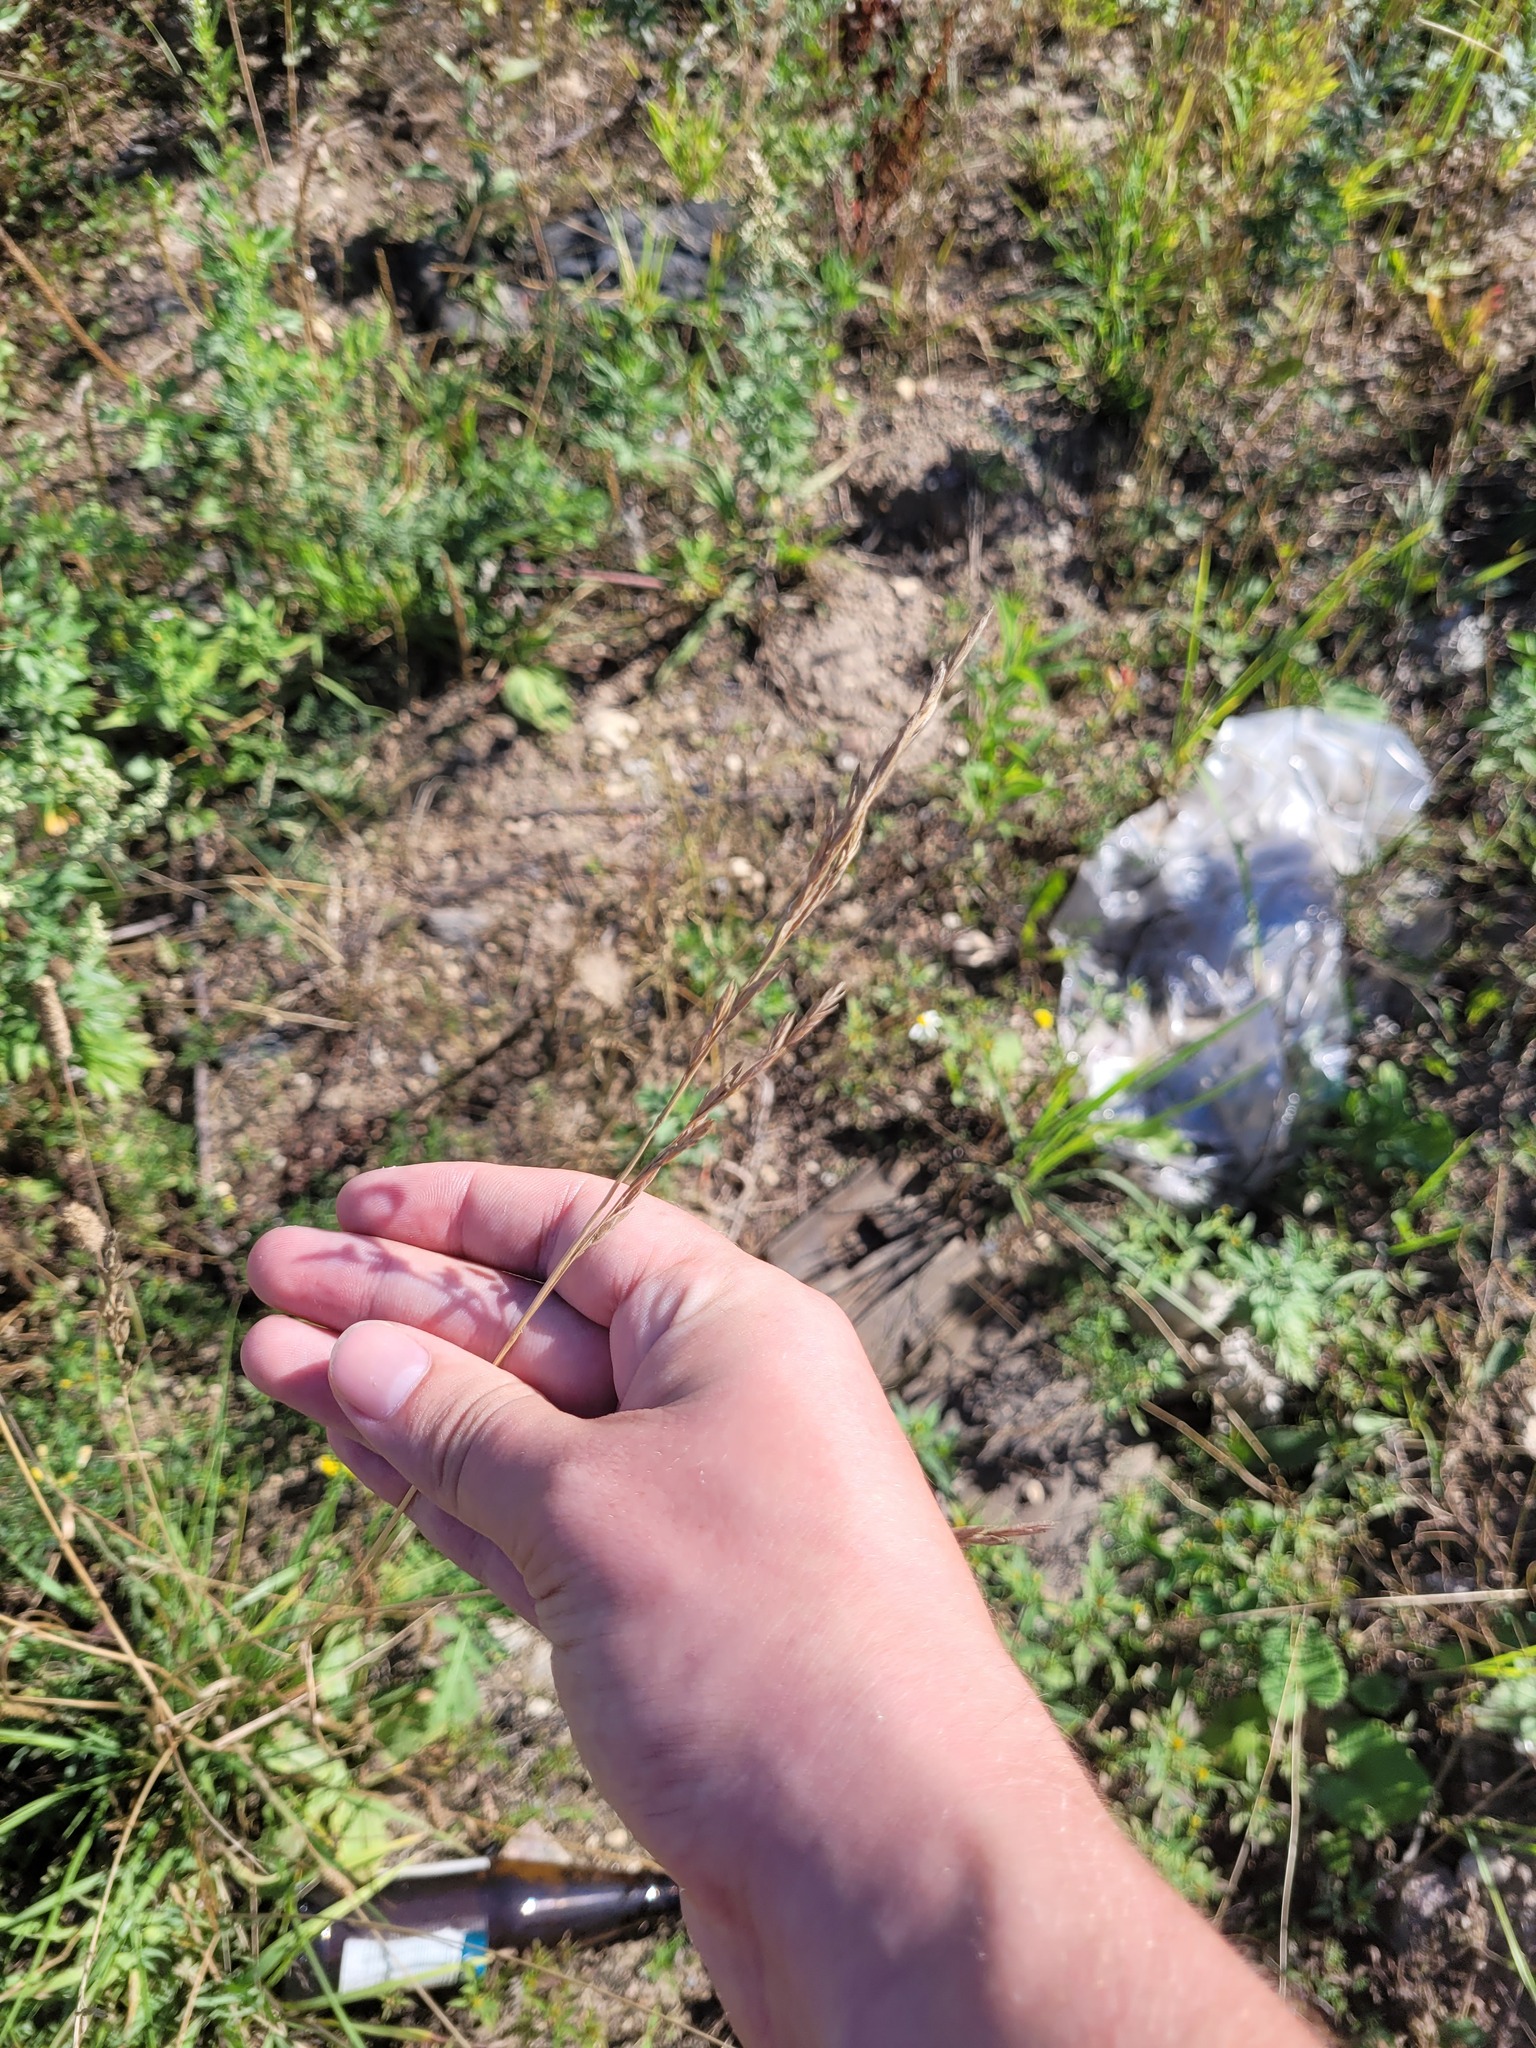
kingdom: Plantae
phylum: Tracheophyta
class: Liliopsida
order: Poales
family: Poaceae
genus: Lolium
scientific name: Lolium pratense
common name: Dover grass
